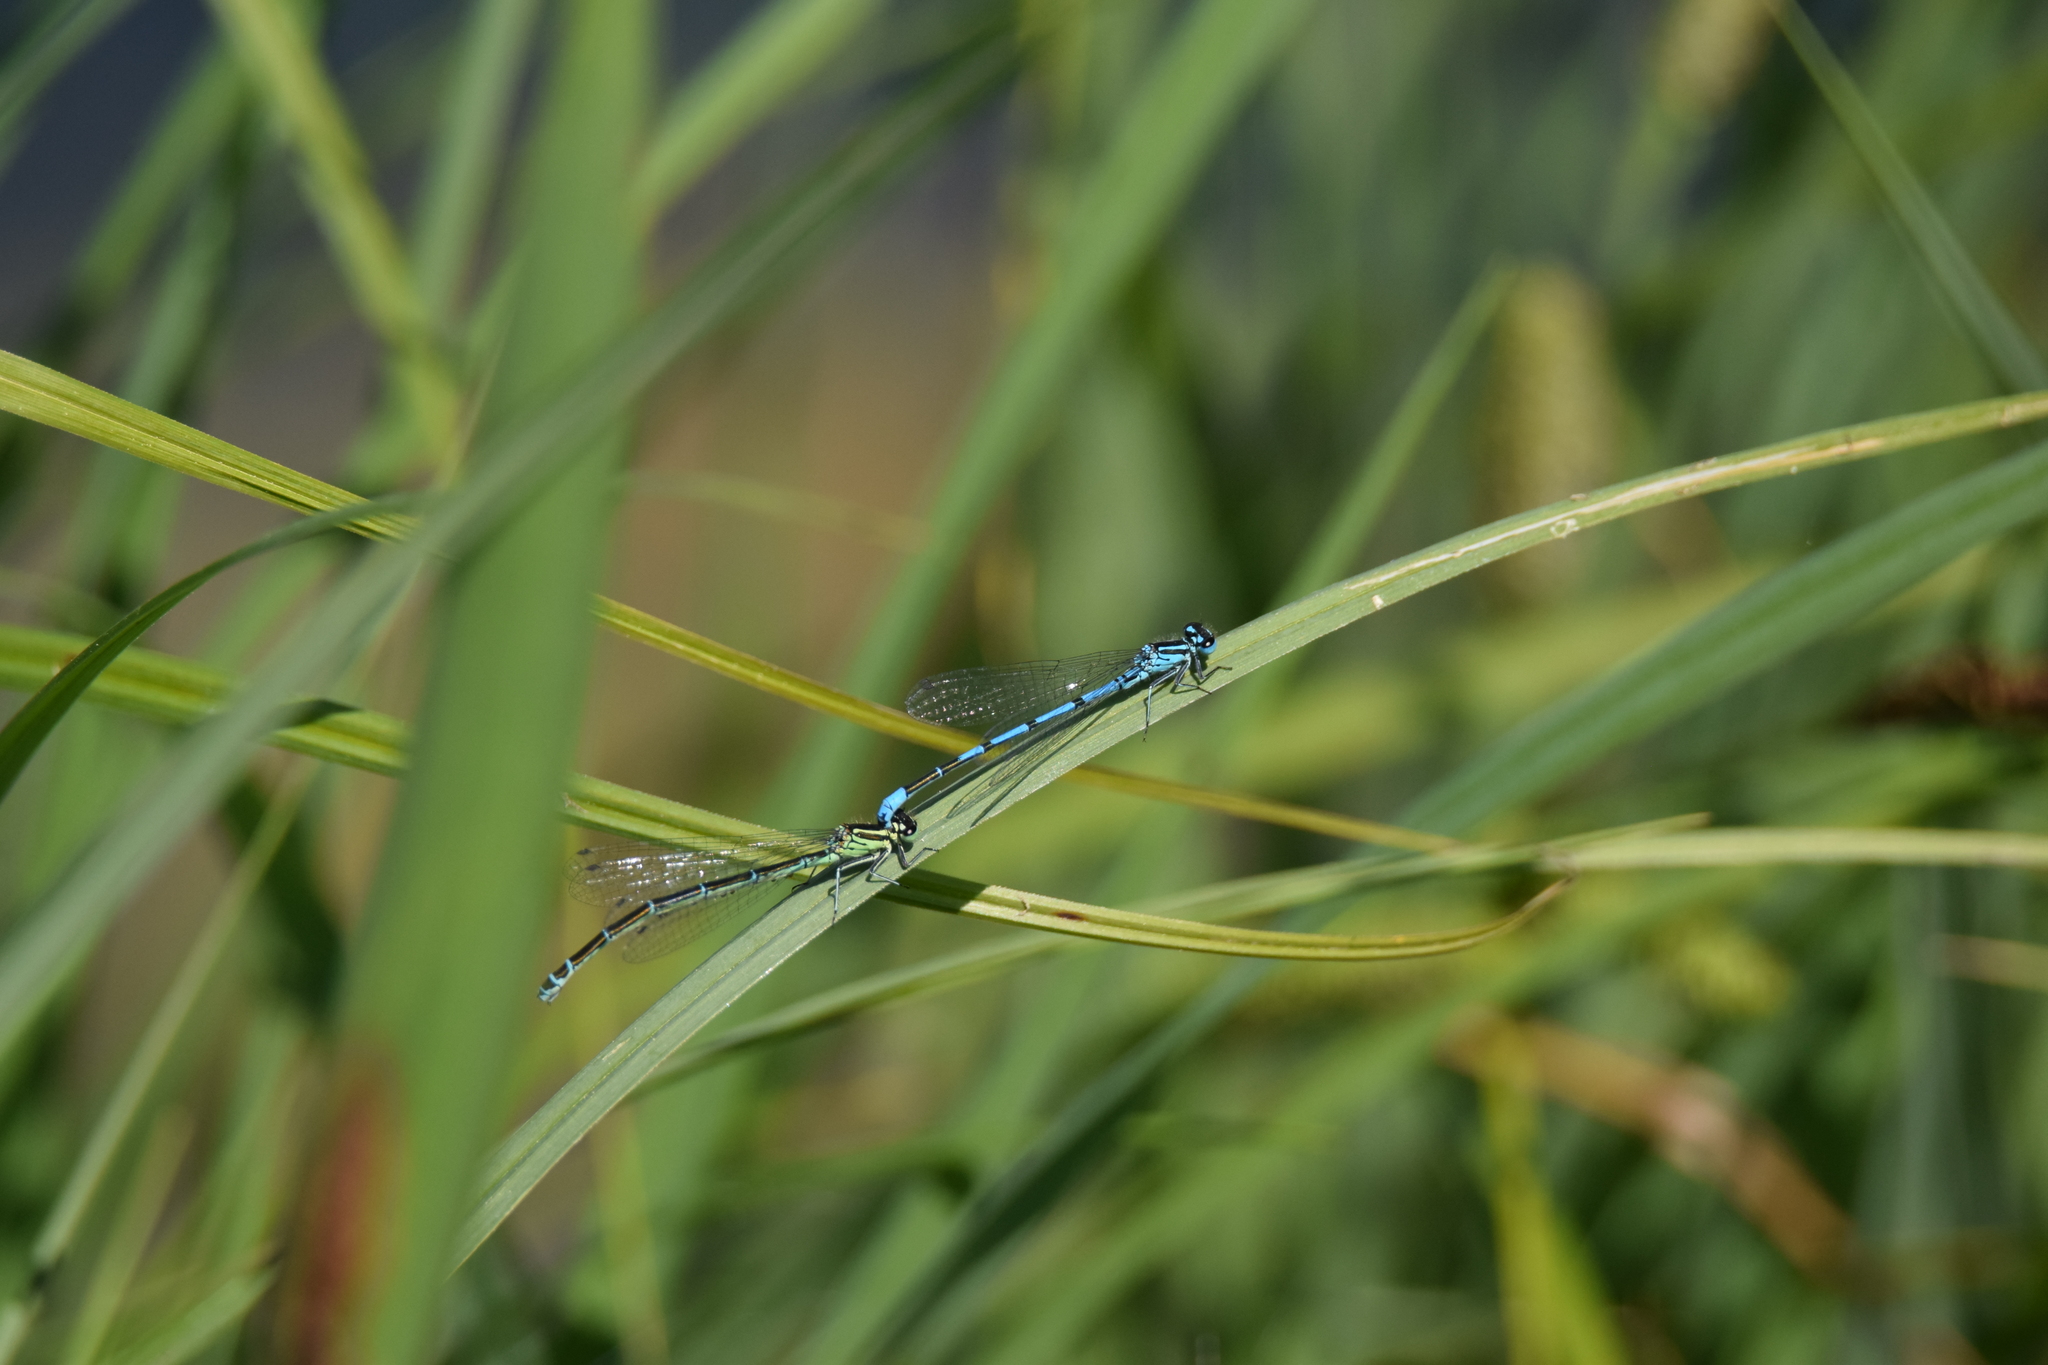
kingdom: Animalia
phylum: Arthropoda
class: Insecta
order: Odonata
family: Coenagrionidae
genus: Coenagrion
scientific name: Coenagrion puella
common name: Azure damselfly
